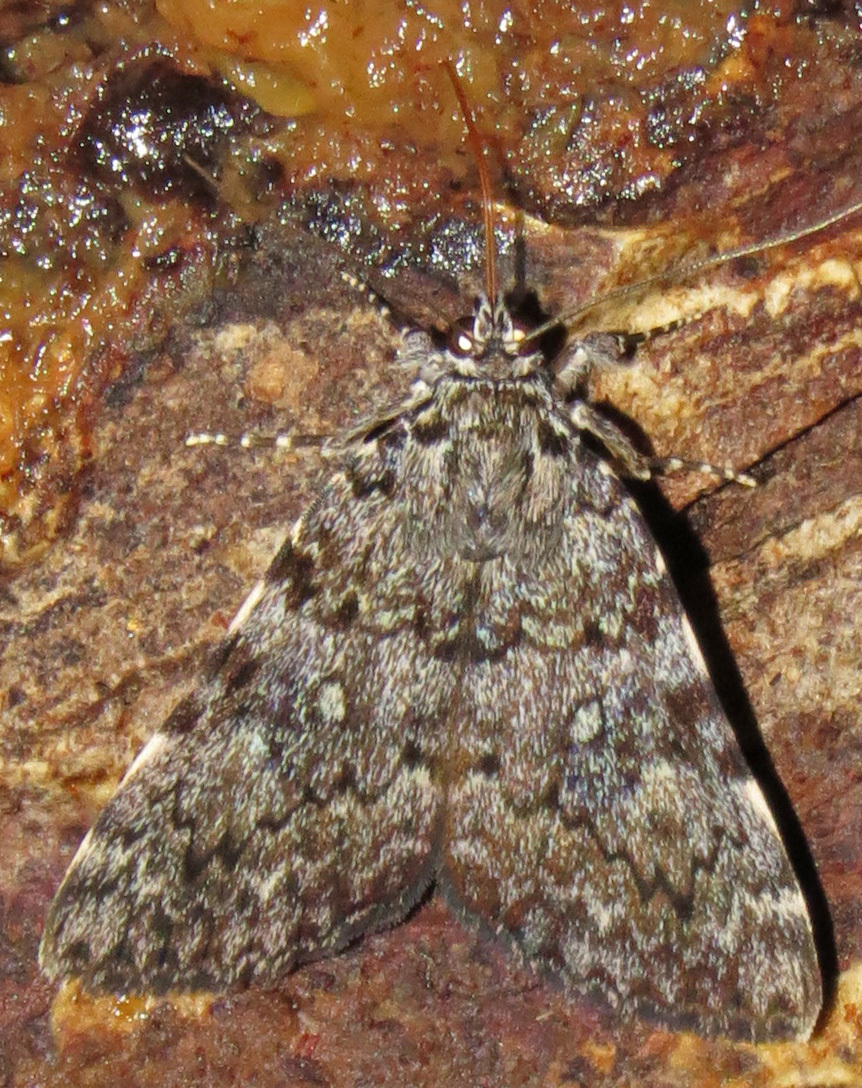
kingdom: Animalia
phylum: Arthropoda
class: Insecta
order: Lepidoptera
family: Erebidae
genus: Catocala
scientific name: Catocala lineella
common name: Little lined underwing
